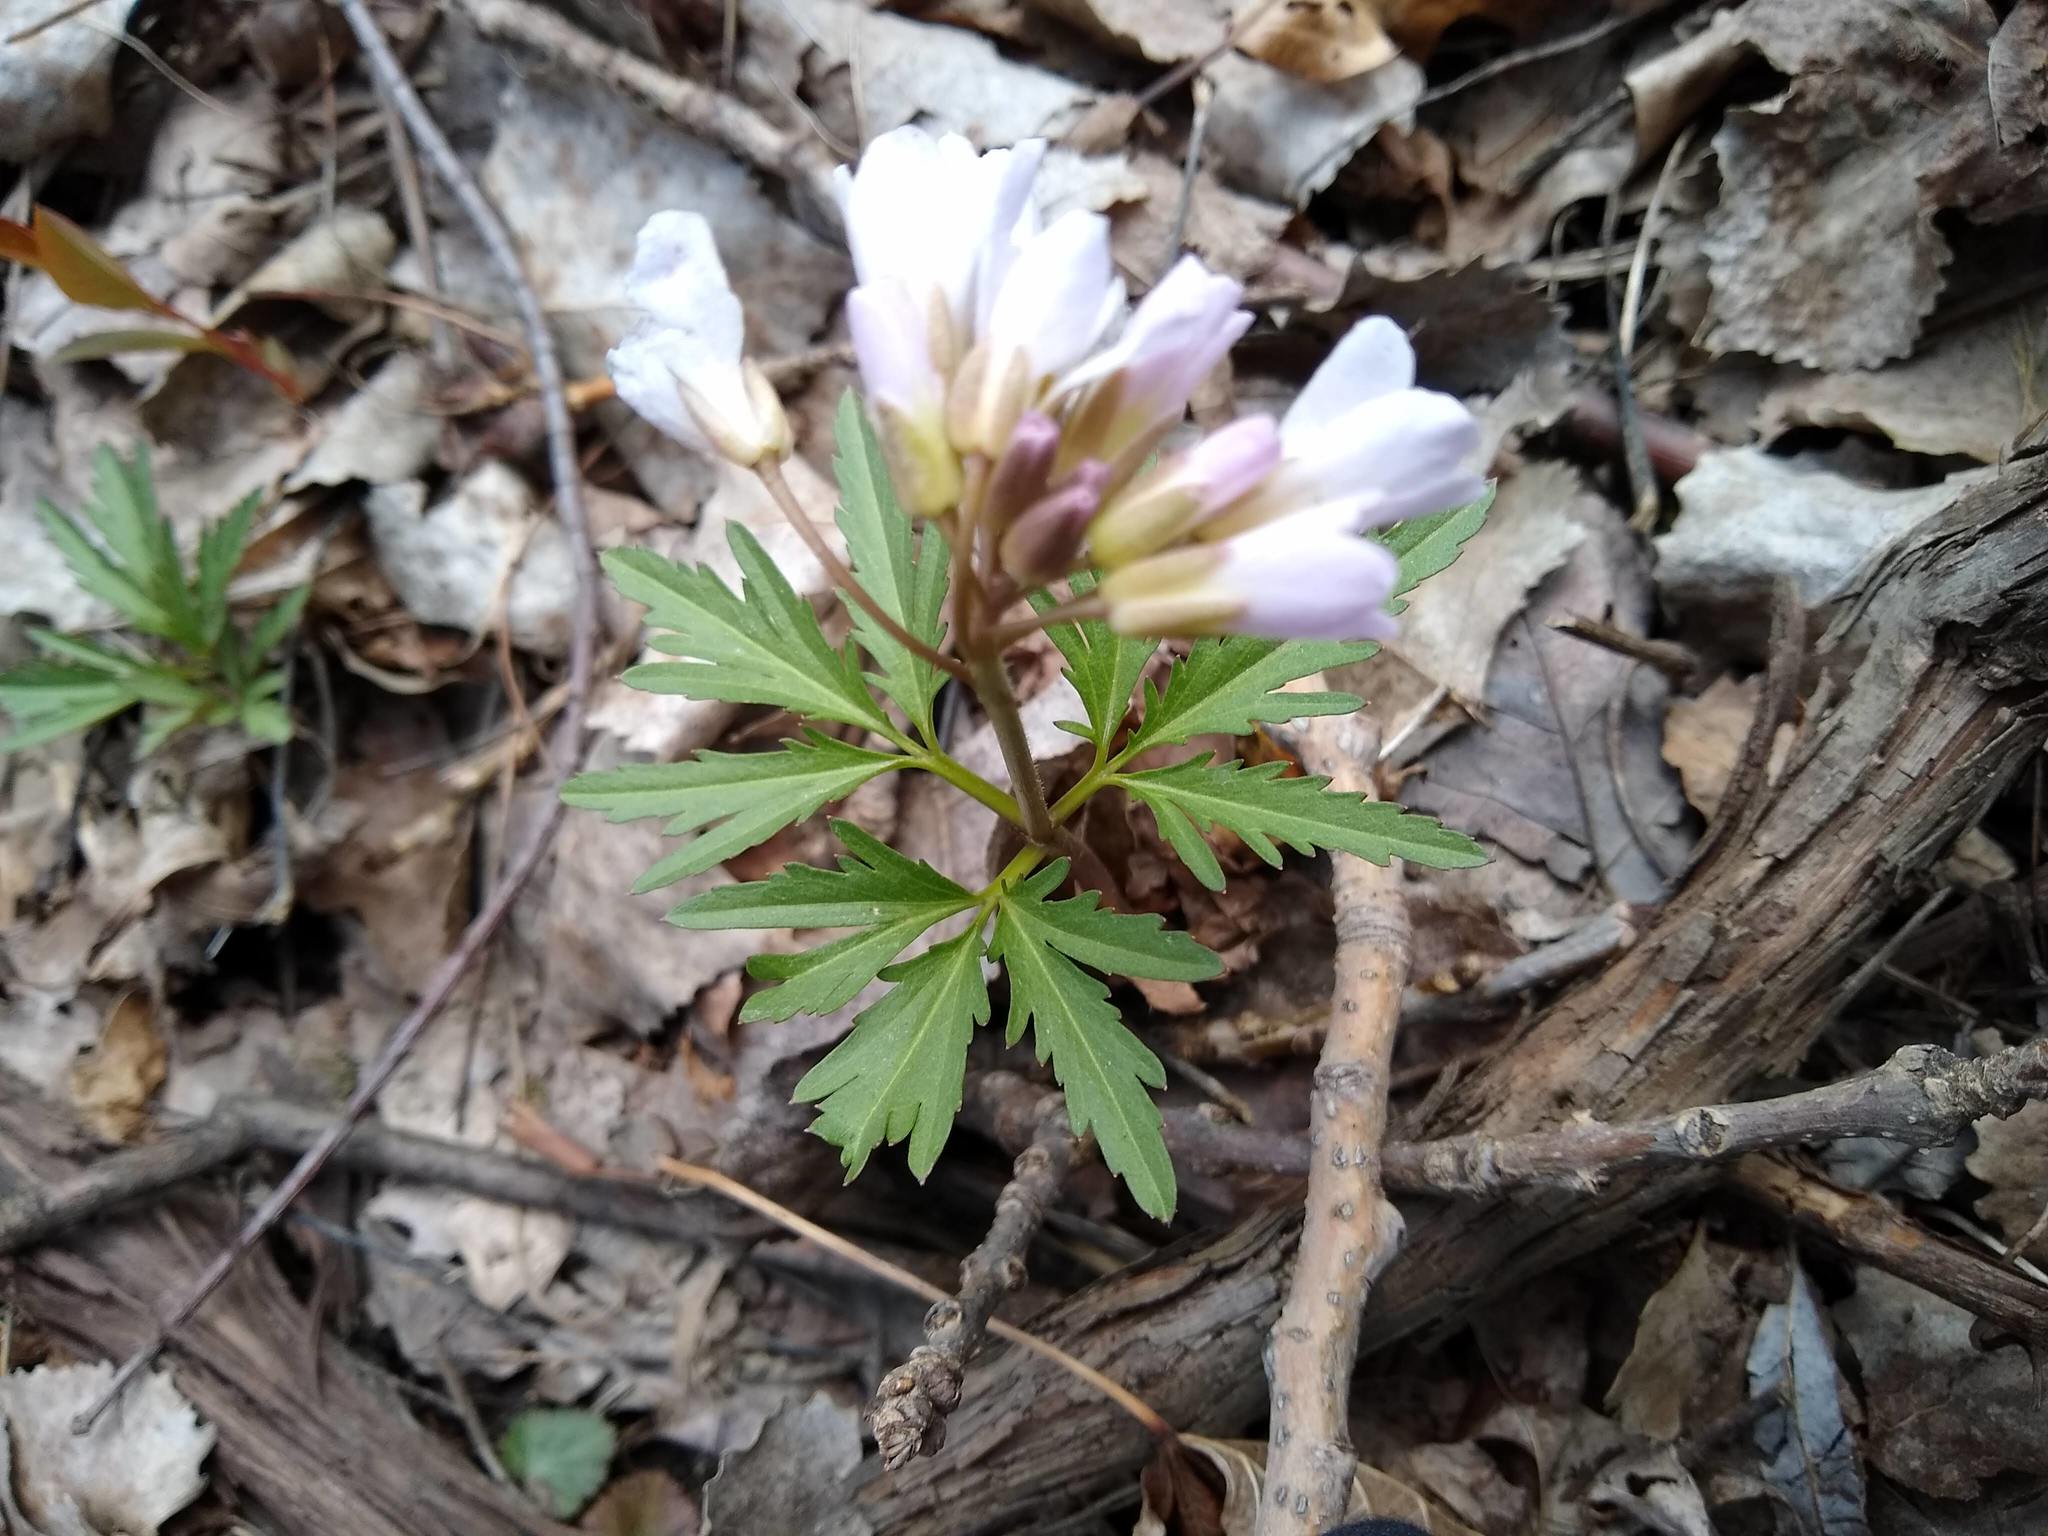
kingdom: Plantae
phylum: Tracheophyta
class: Magnoliopsida
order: Brassicales
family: Brassicaceae
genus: Cardamine
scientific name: Cardamine concatenata
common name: Cut-leaf toothcup
